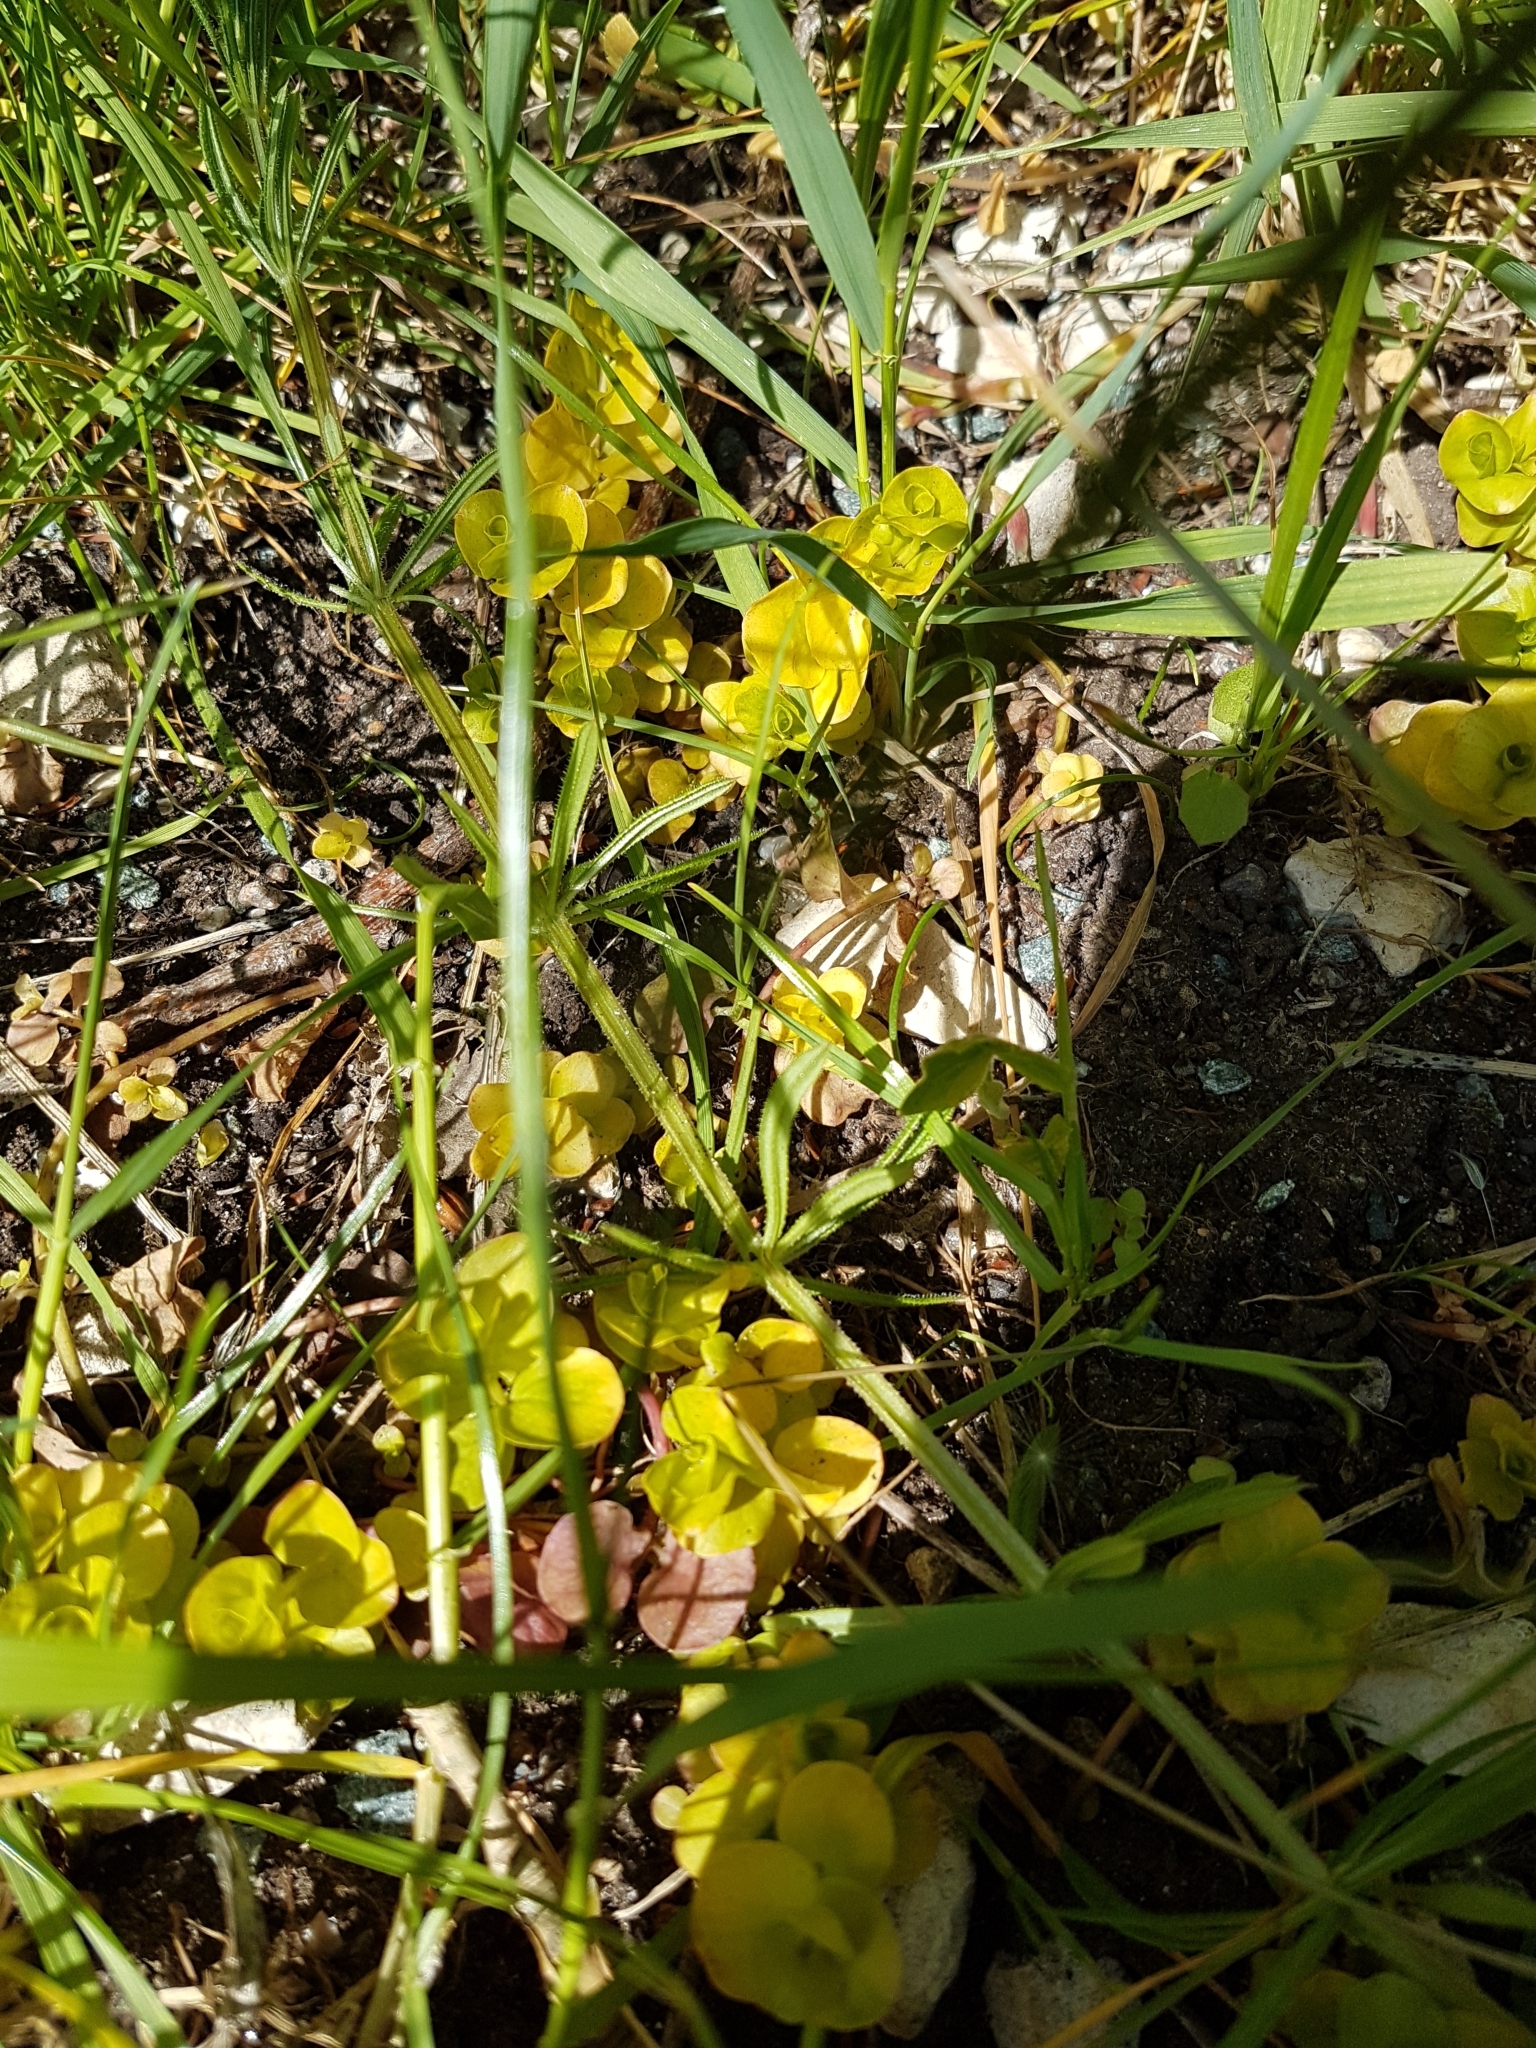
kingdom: Plantae
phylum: Tracheophyta
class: Magnoliopsida
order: Ericales
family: Primulaceae
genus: Lysimachia
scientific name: Lysimachia nummularia
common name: Moneywort
